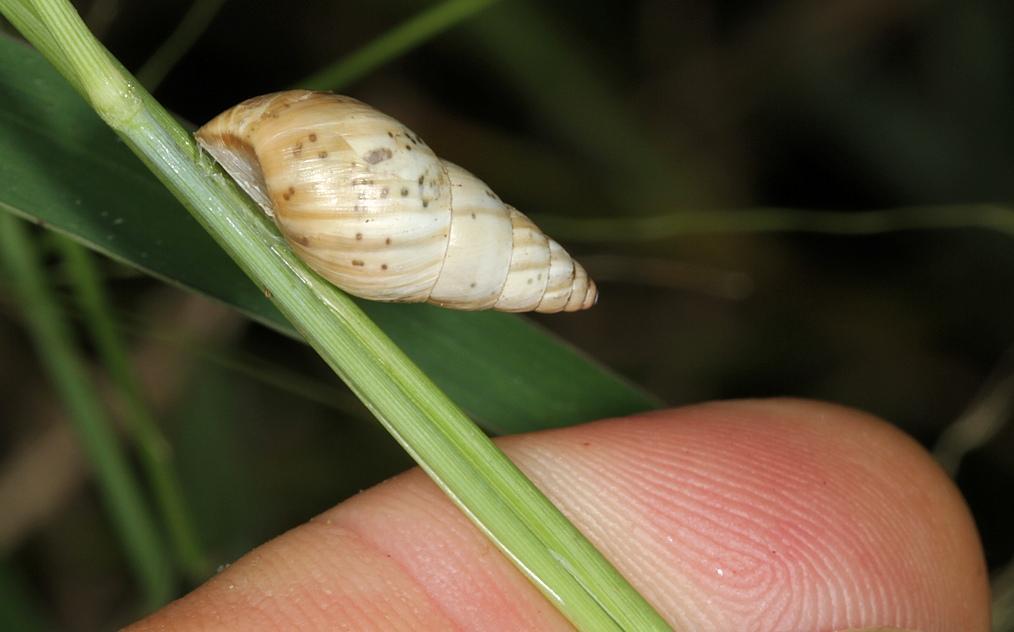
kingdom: Animalia
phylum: Mollusca
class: Gastropoda
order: Stylommatophora
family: Cerastidae
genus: Rachis
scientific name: Rachis jejuna
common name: Savanna porcelain snail
